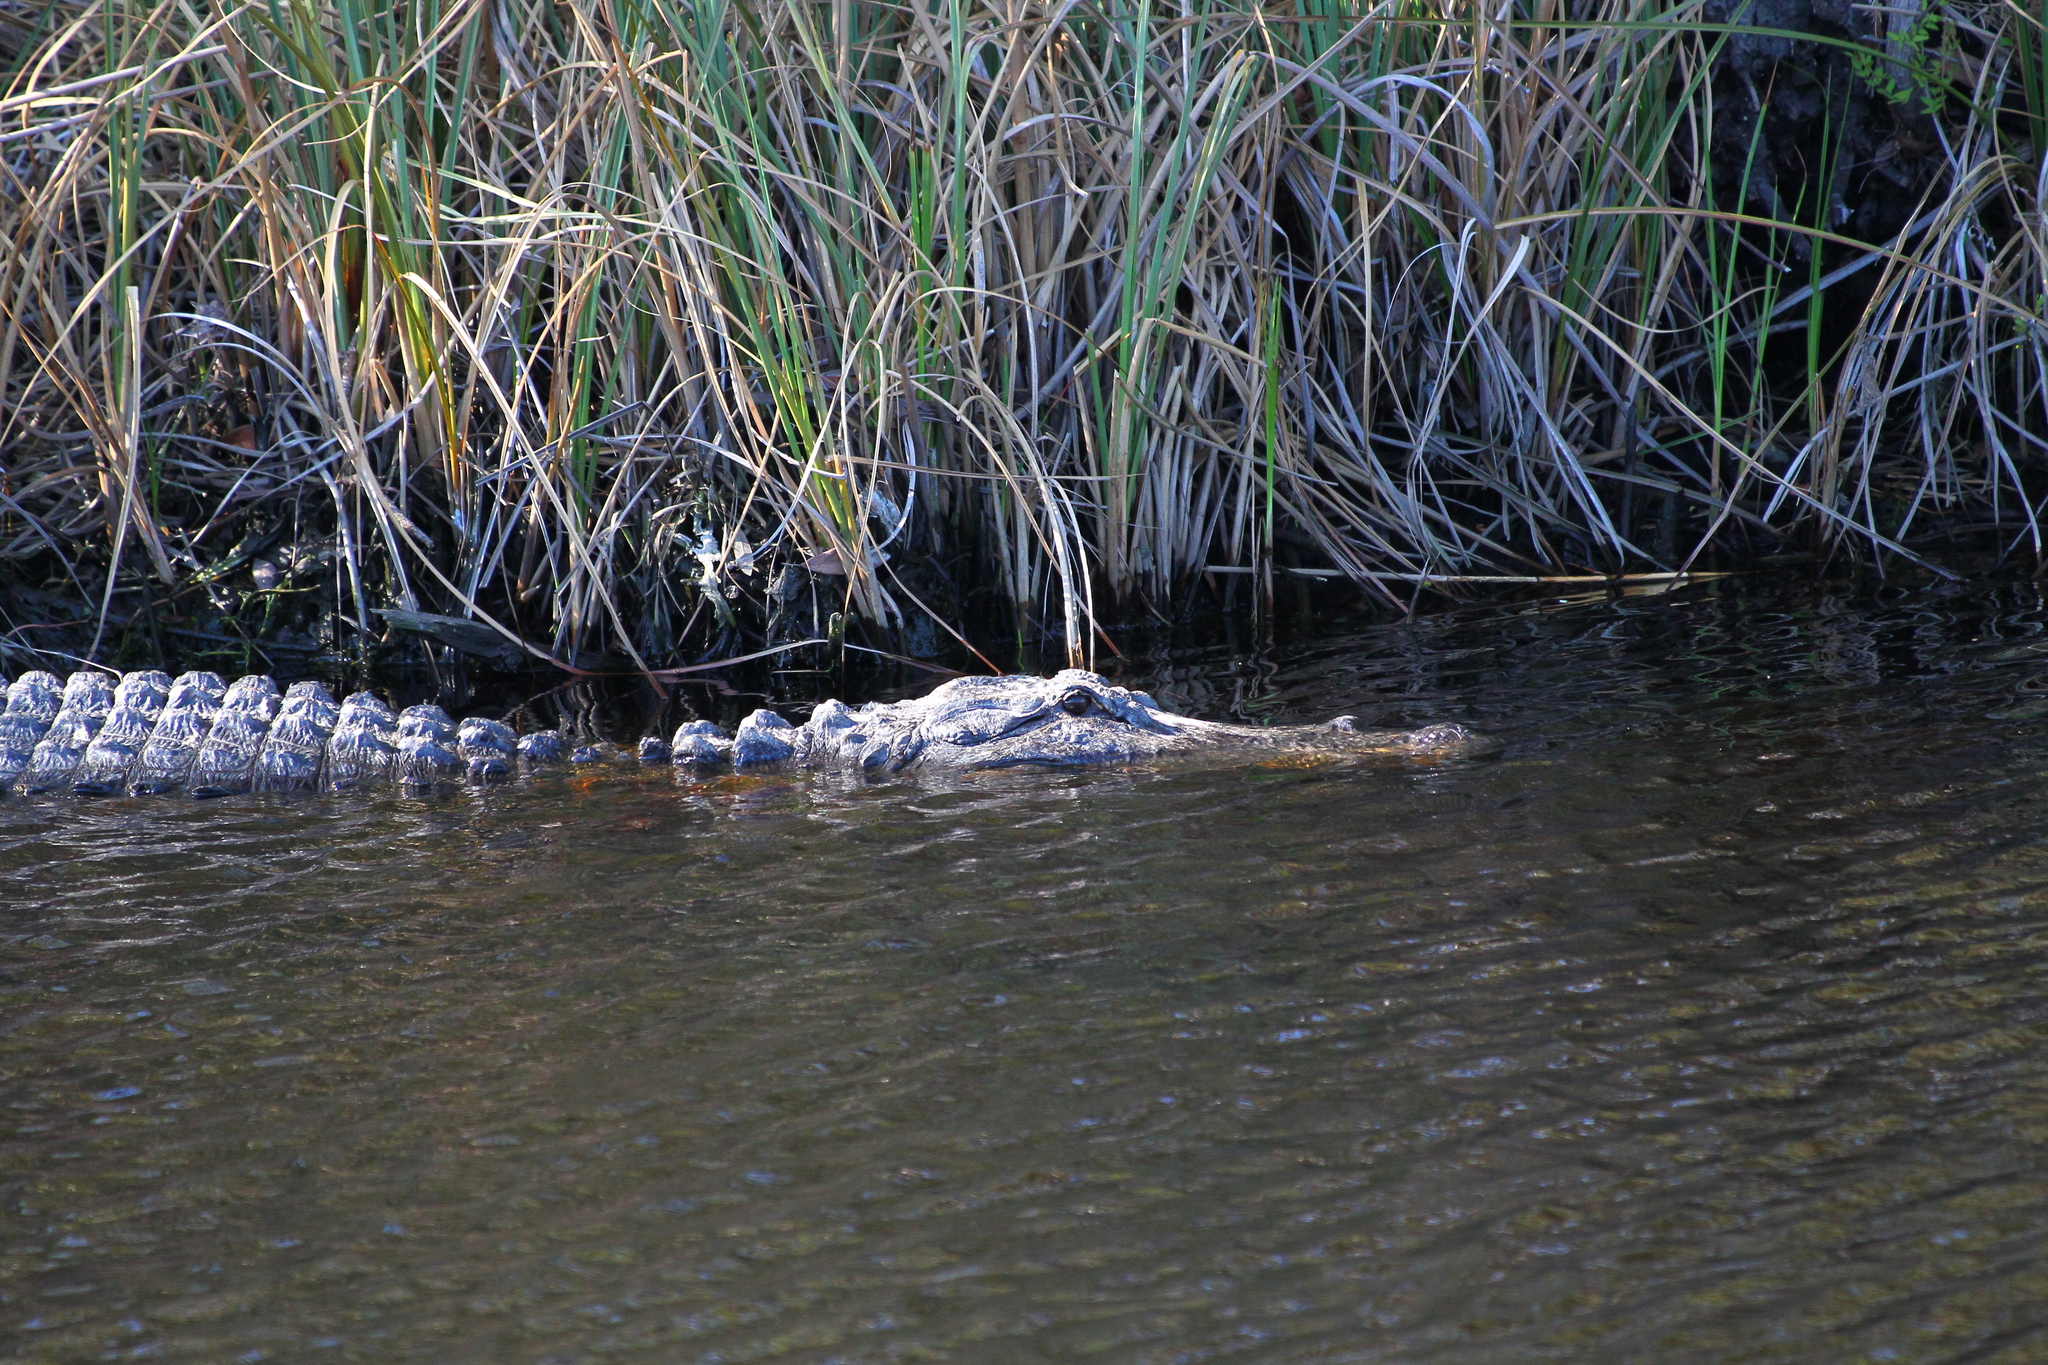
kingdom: Animalia
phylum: Chordata
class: Crocodylia
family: Alligatoridae
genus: Alligator
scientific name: Alligator mississippiensis
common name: American alligator
